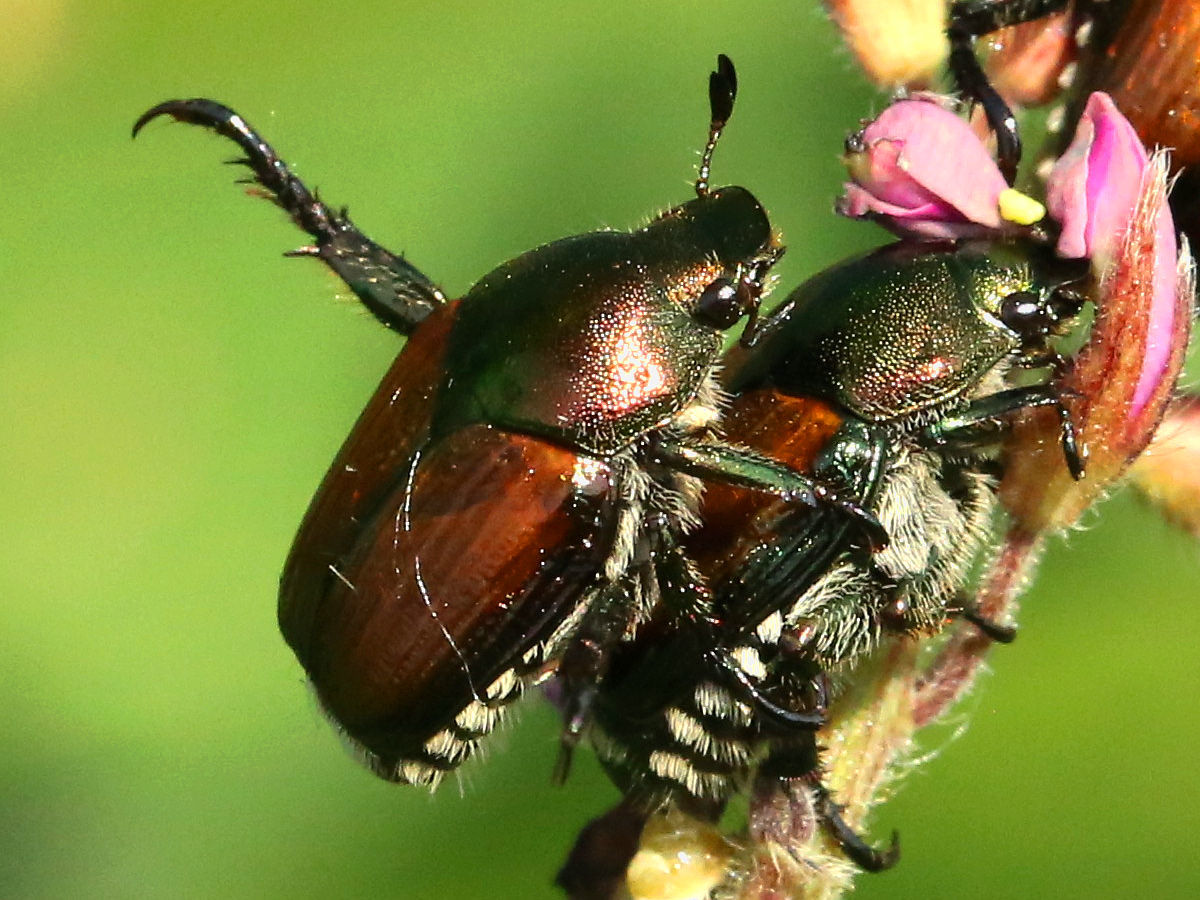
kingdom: Animalia
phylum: Arthropoda
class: Insecta
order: Coleoptera
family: Scarabaeidae
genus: Popillia
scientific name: Popillia japonica
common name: Japanese beetle
